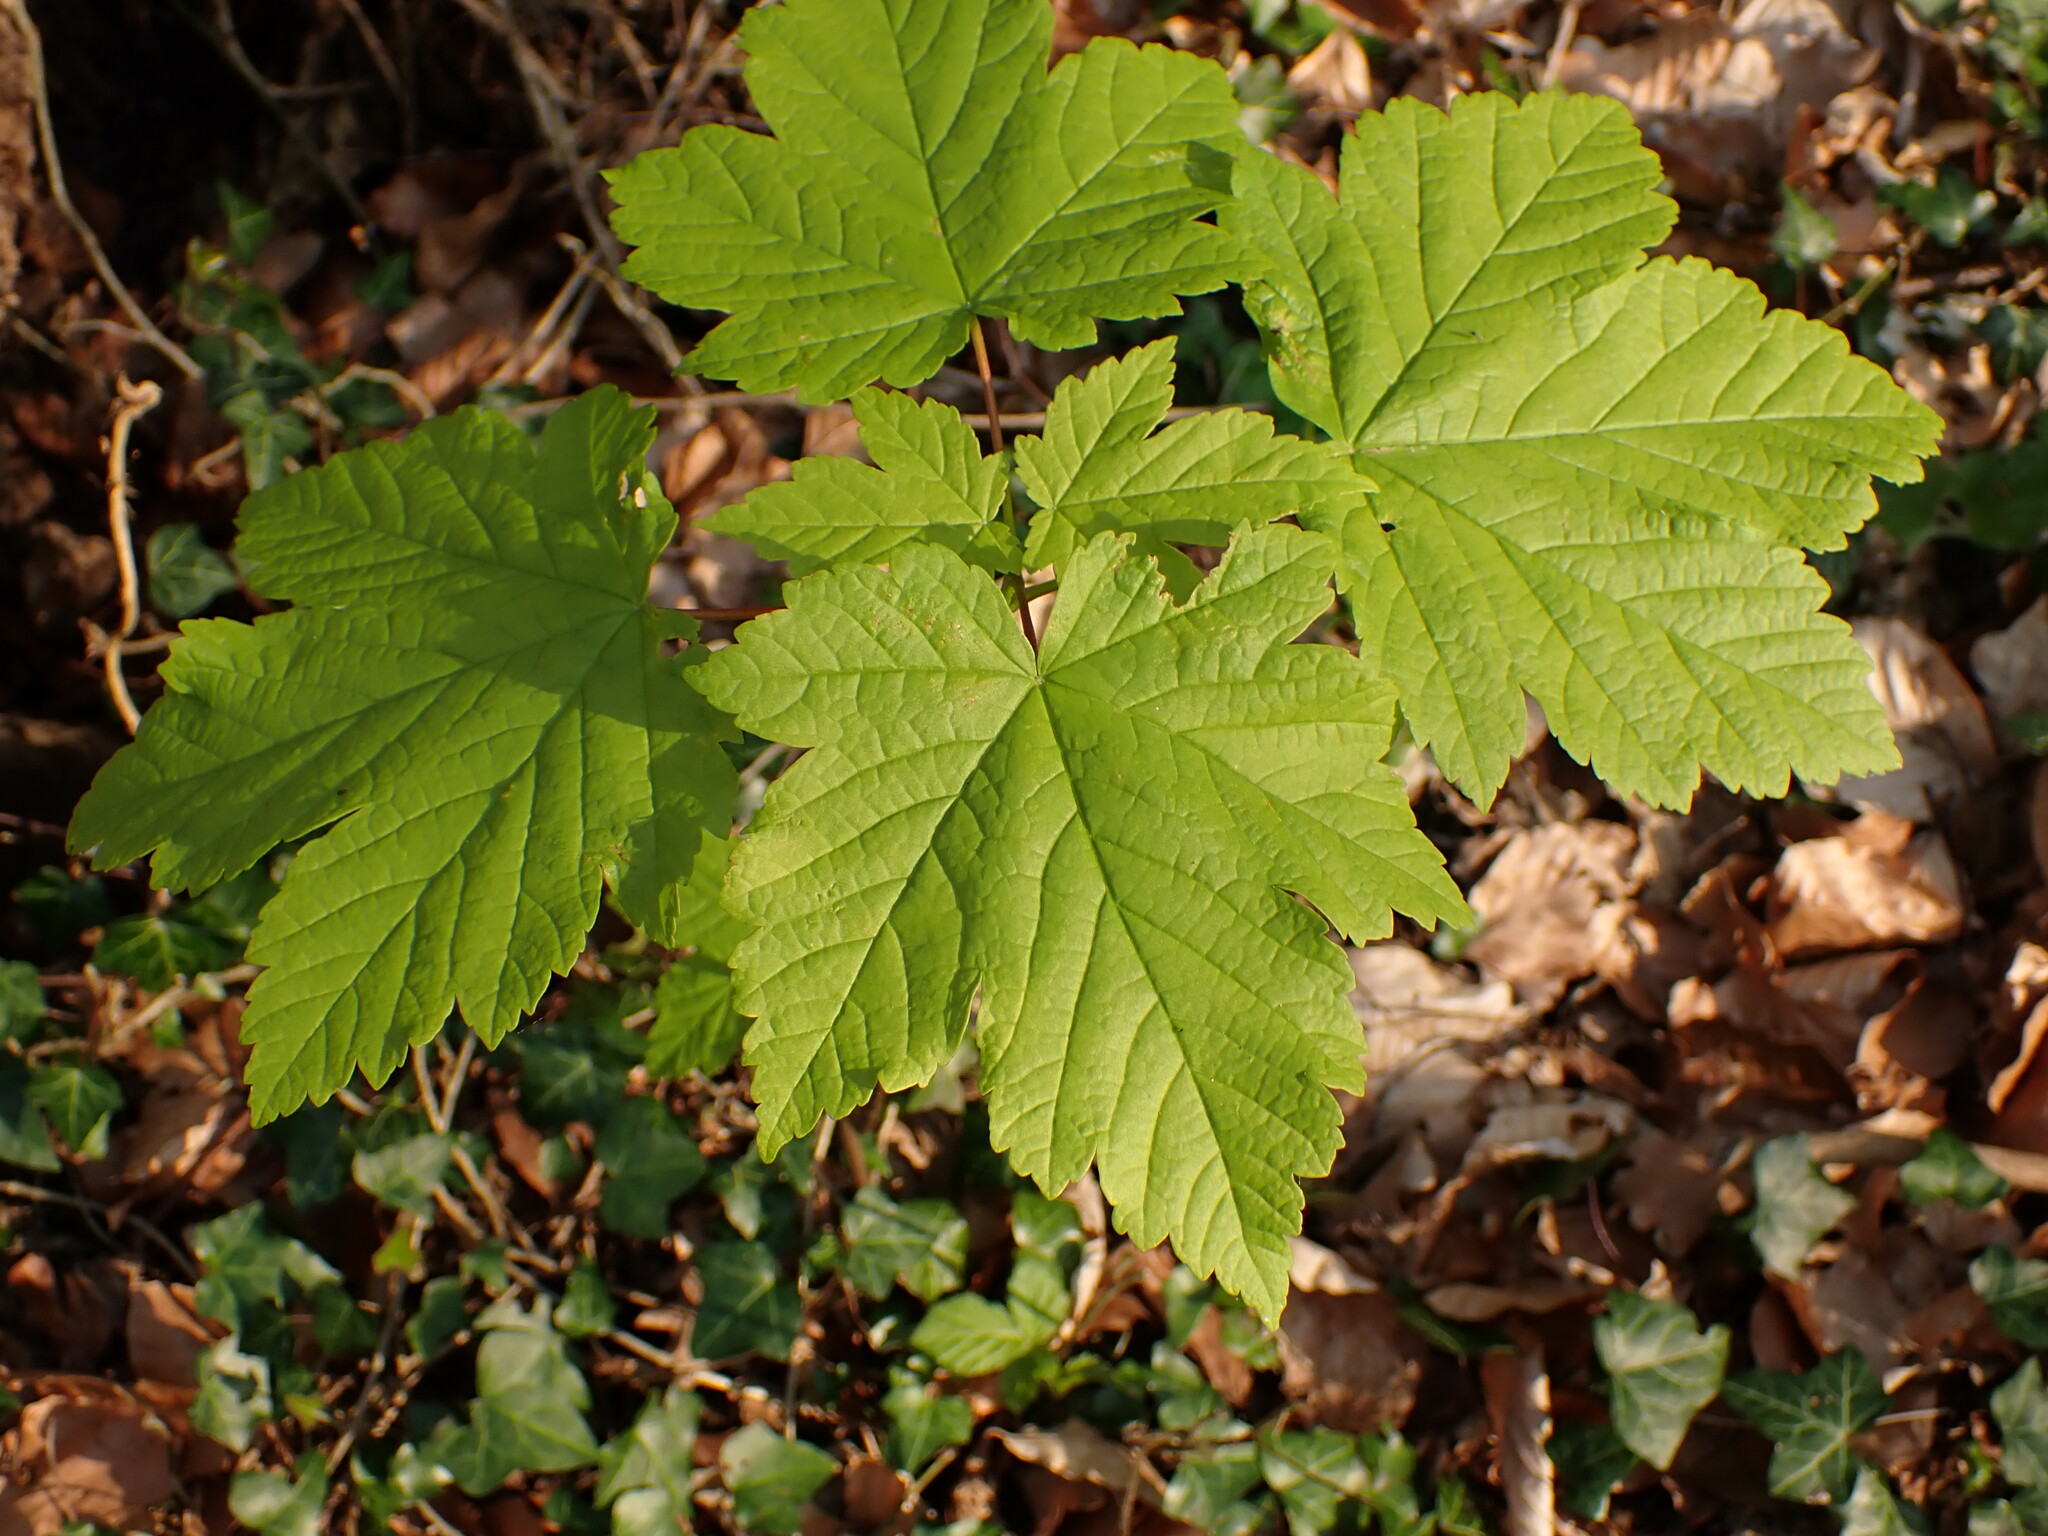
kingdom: Plantae
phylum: Tracheophyta
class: Magnoliopsida
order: Sapindales
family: Sapindaceae
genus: Acer
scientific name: Acer pseudoplatanus
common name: Sycamore
